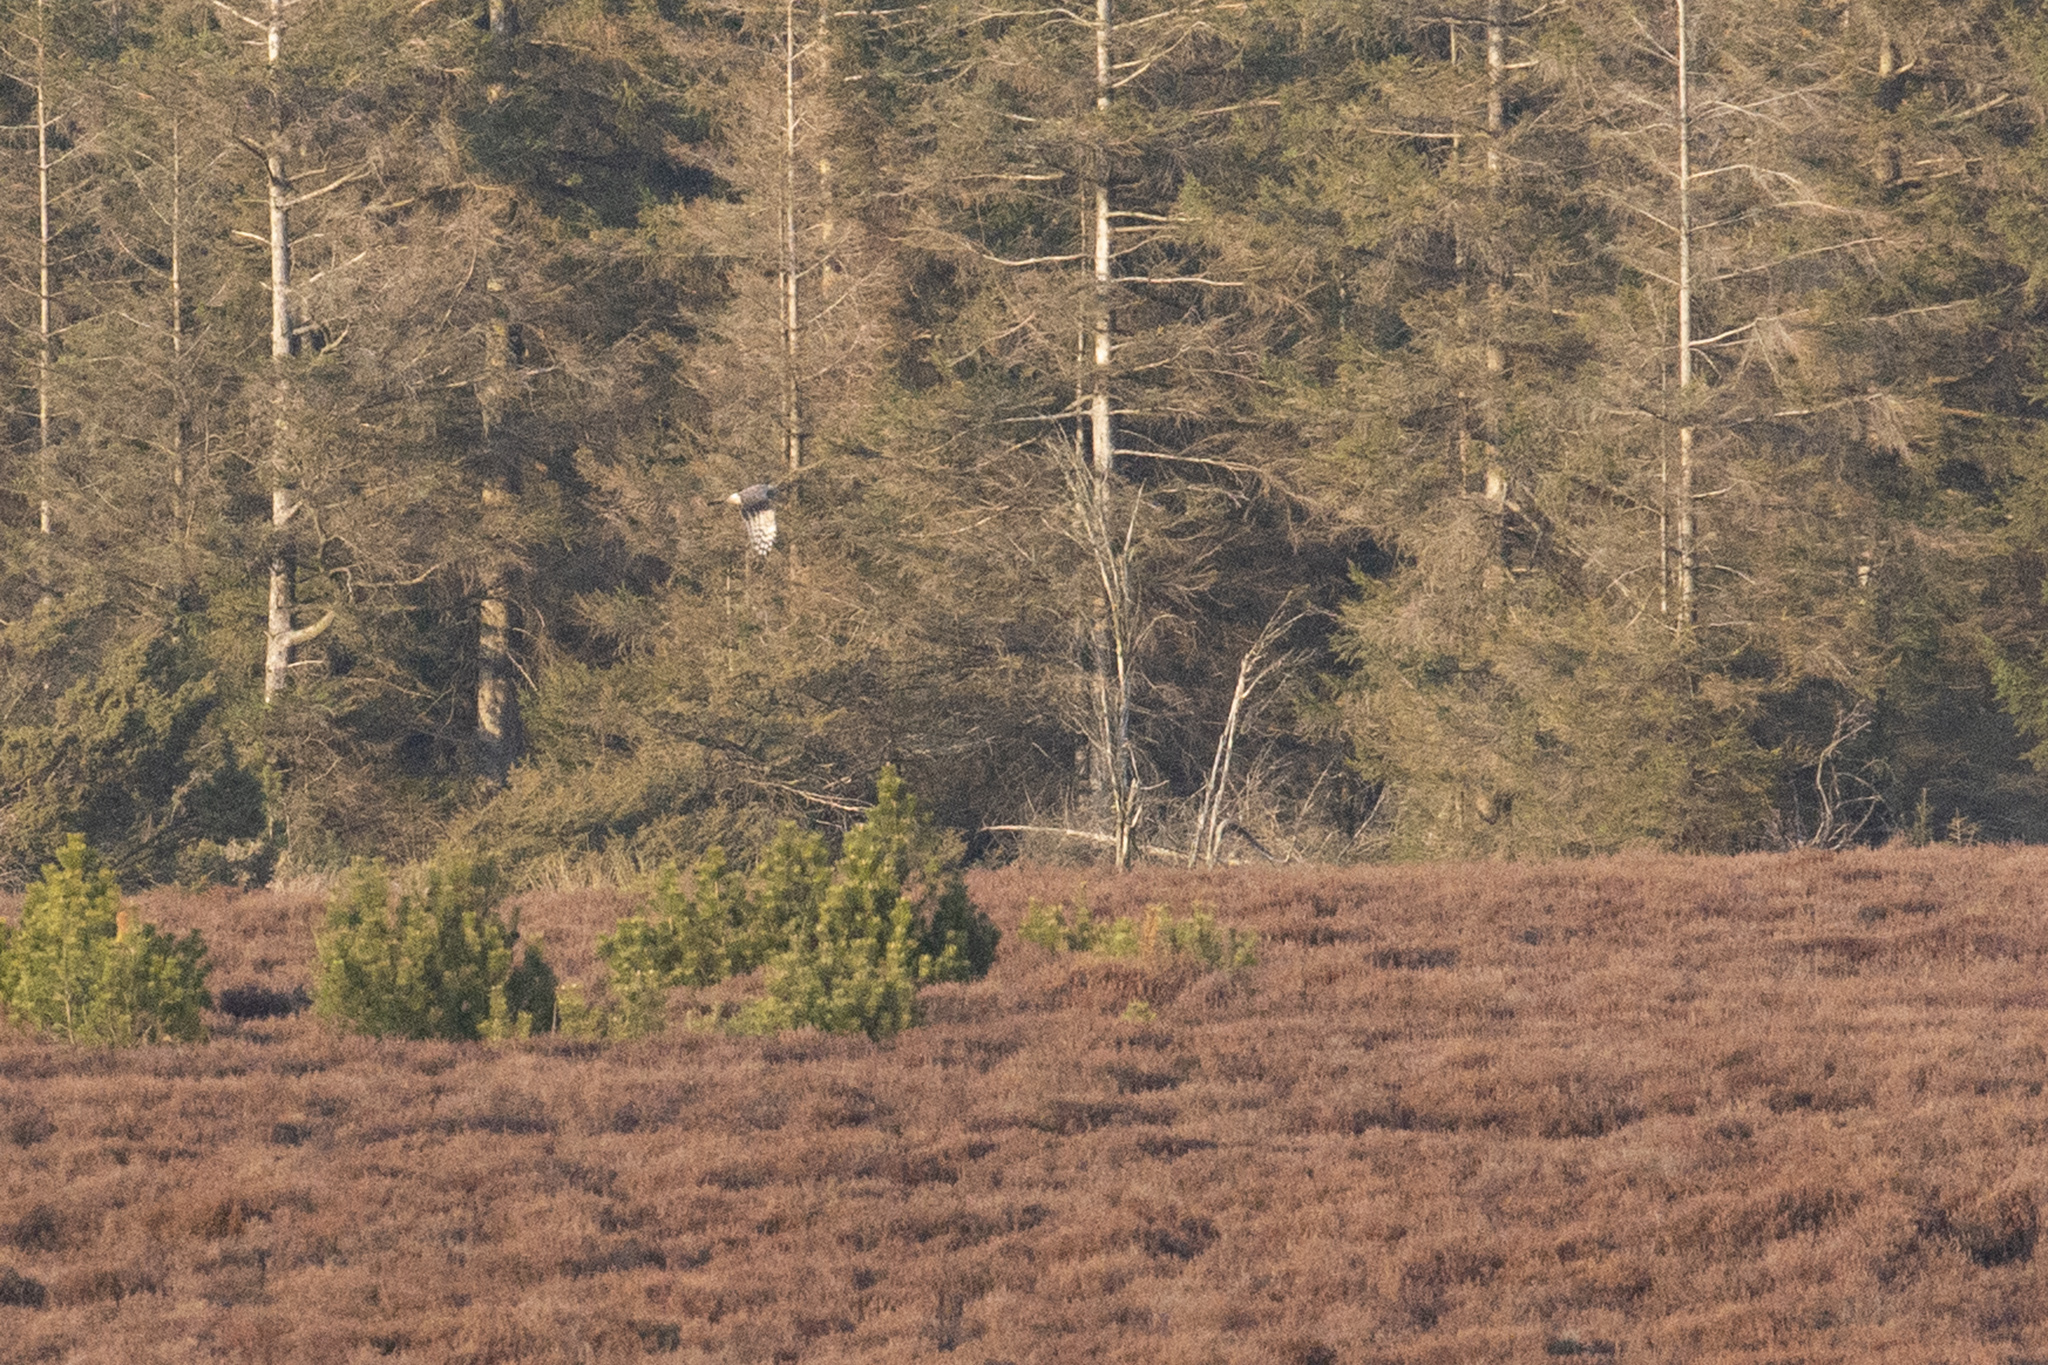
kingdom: Animalia
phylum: Chordata
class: Aves
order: Accipitriformes
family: Accipitridae
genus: Circus
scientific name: Circus cyaneus
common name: Hen harrier
